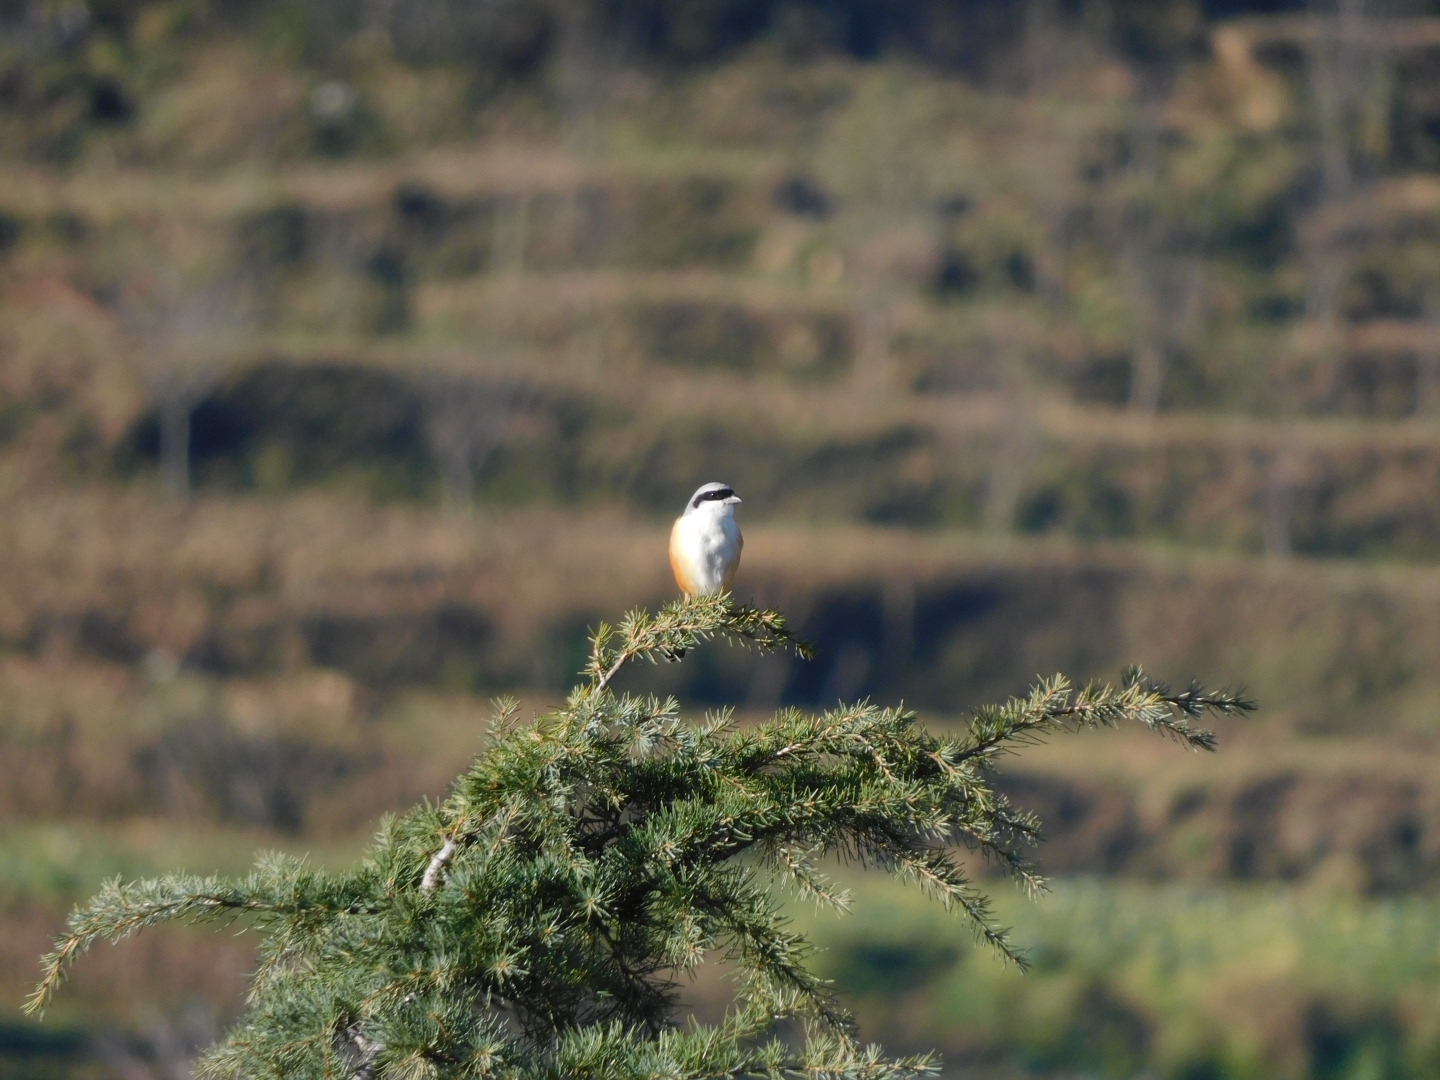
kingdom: Animalia
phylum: Chordata
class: Aves
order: Passeriformes
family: Laniidae
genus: Lanius
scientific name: Lanius schach
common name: Long-tailed shrike
